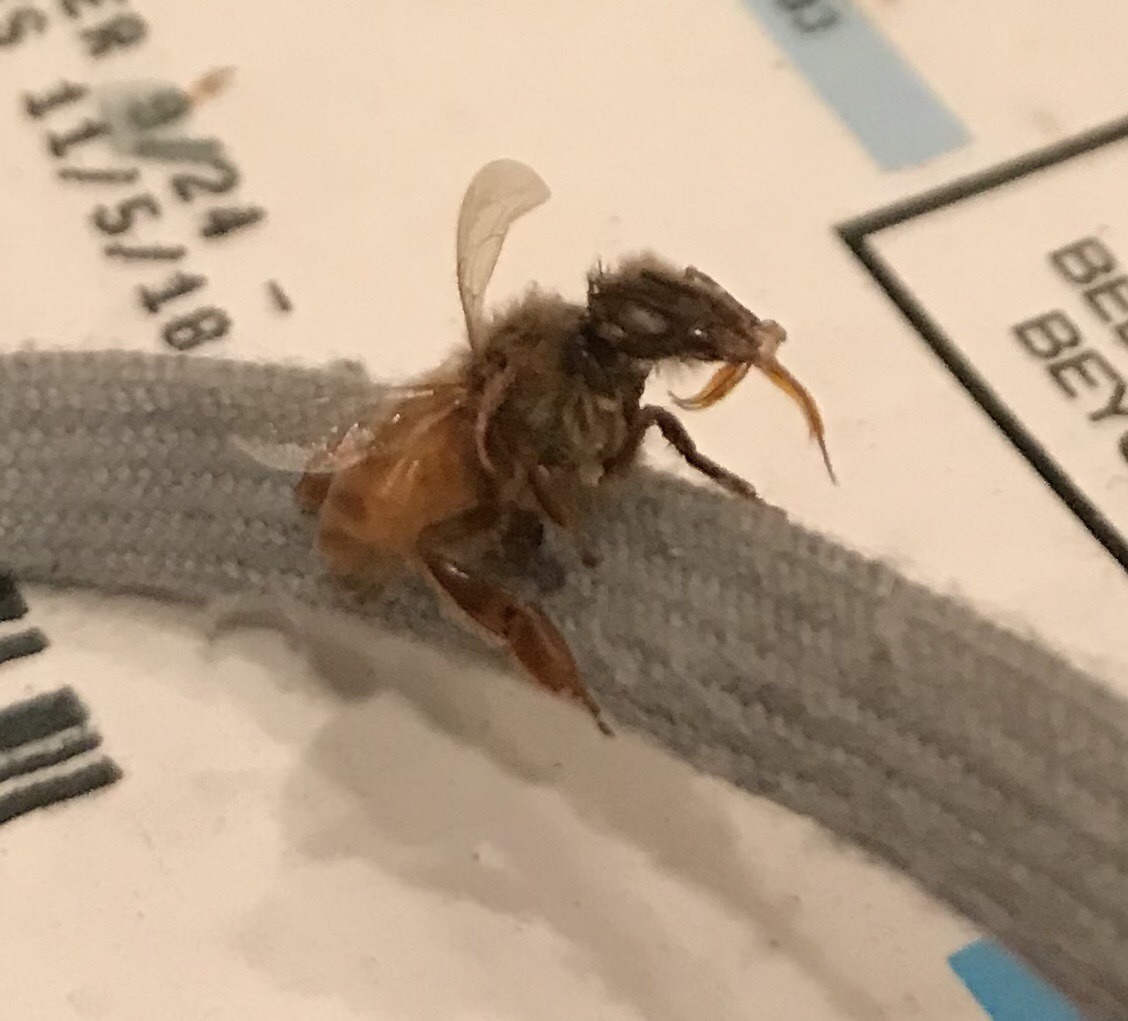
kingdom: Animalia
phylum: Arthropoda
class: Insecta
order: Hymenoptera
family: Apidae
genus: Apis
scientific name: Apis mellifera
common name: Honey bee
